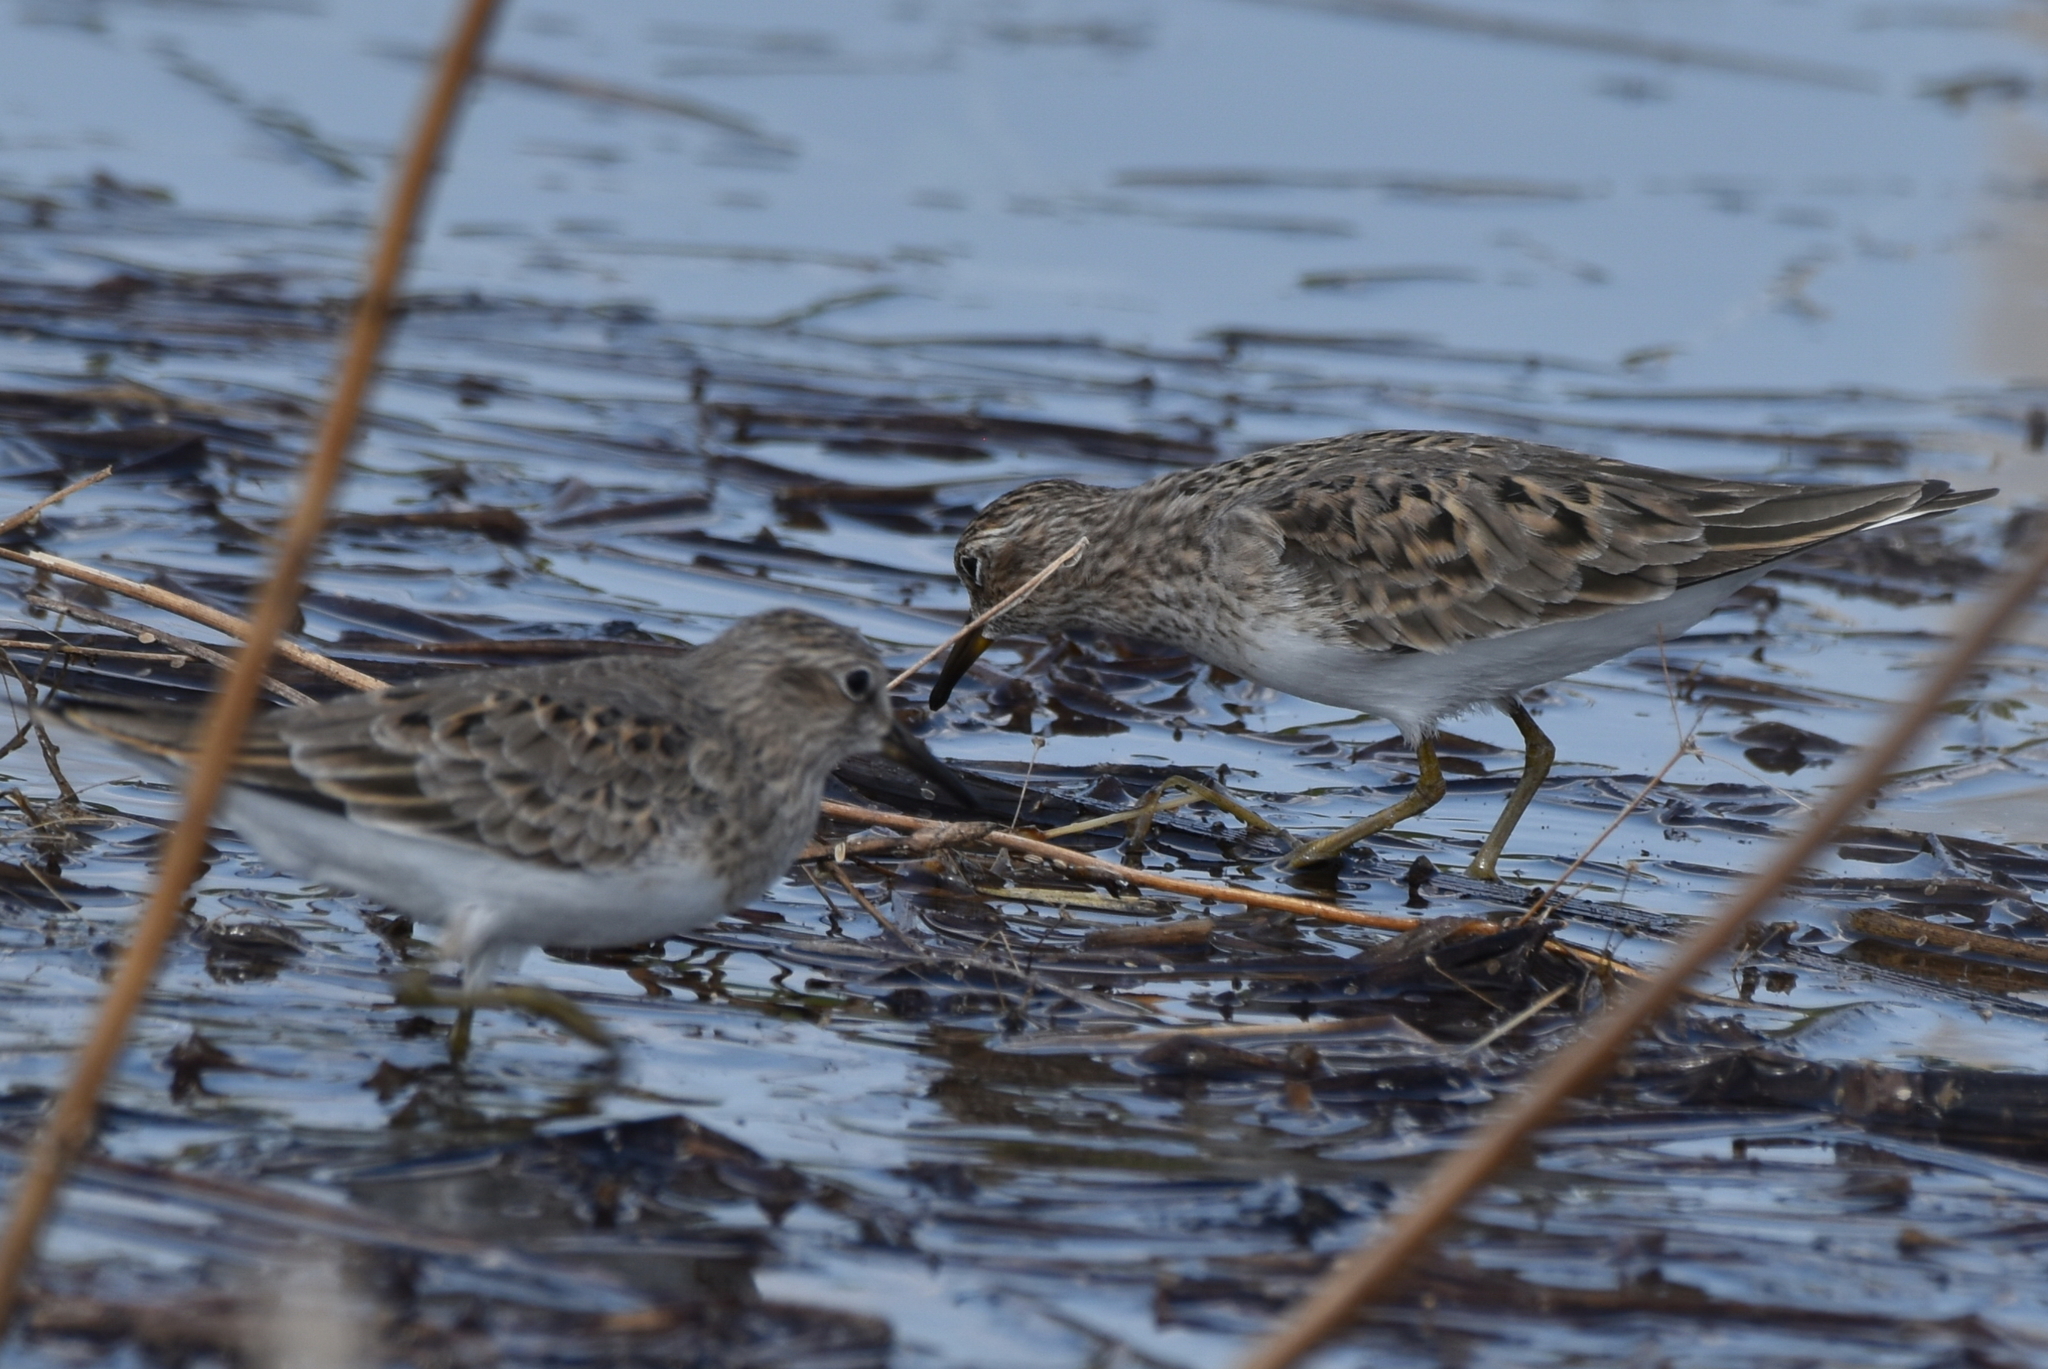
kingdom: Animalia
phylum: Chordata
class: Aves
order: Charadriiformes
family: Scolopacidae
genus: Calidris
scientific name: Calidris temminckii
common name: Temminck's stint
